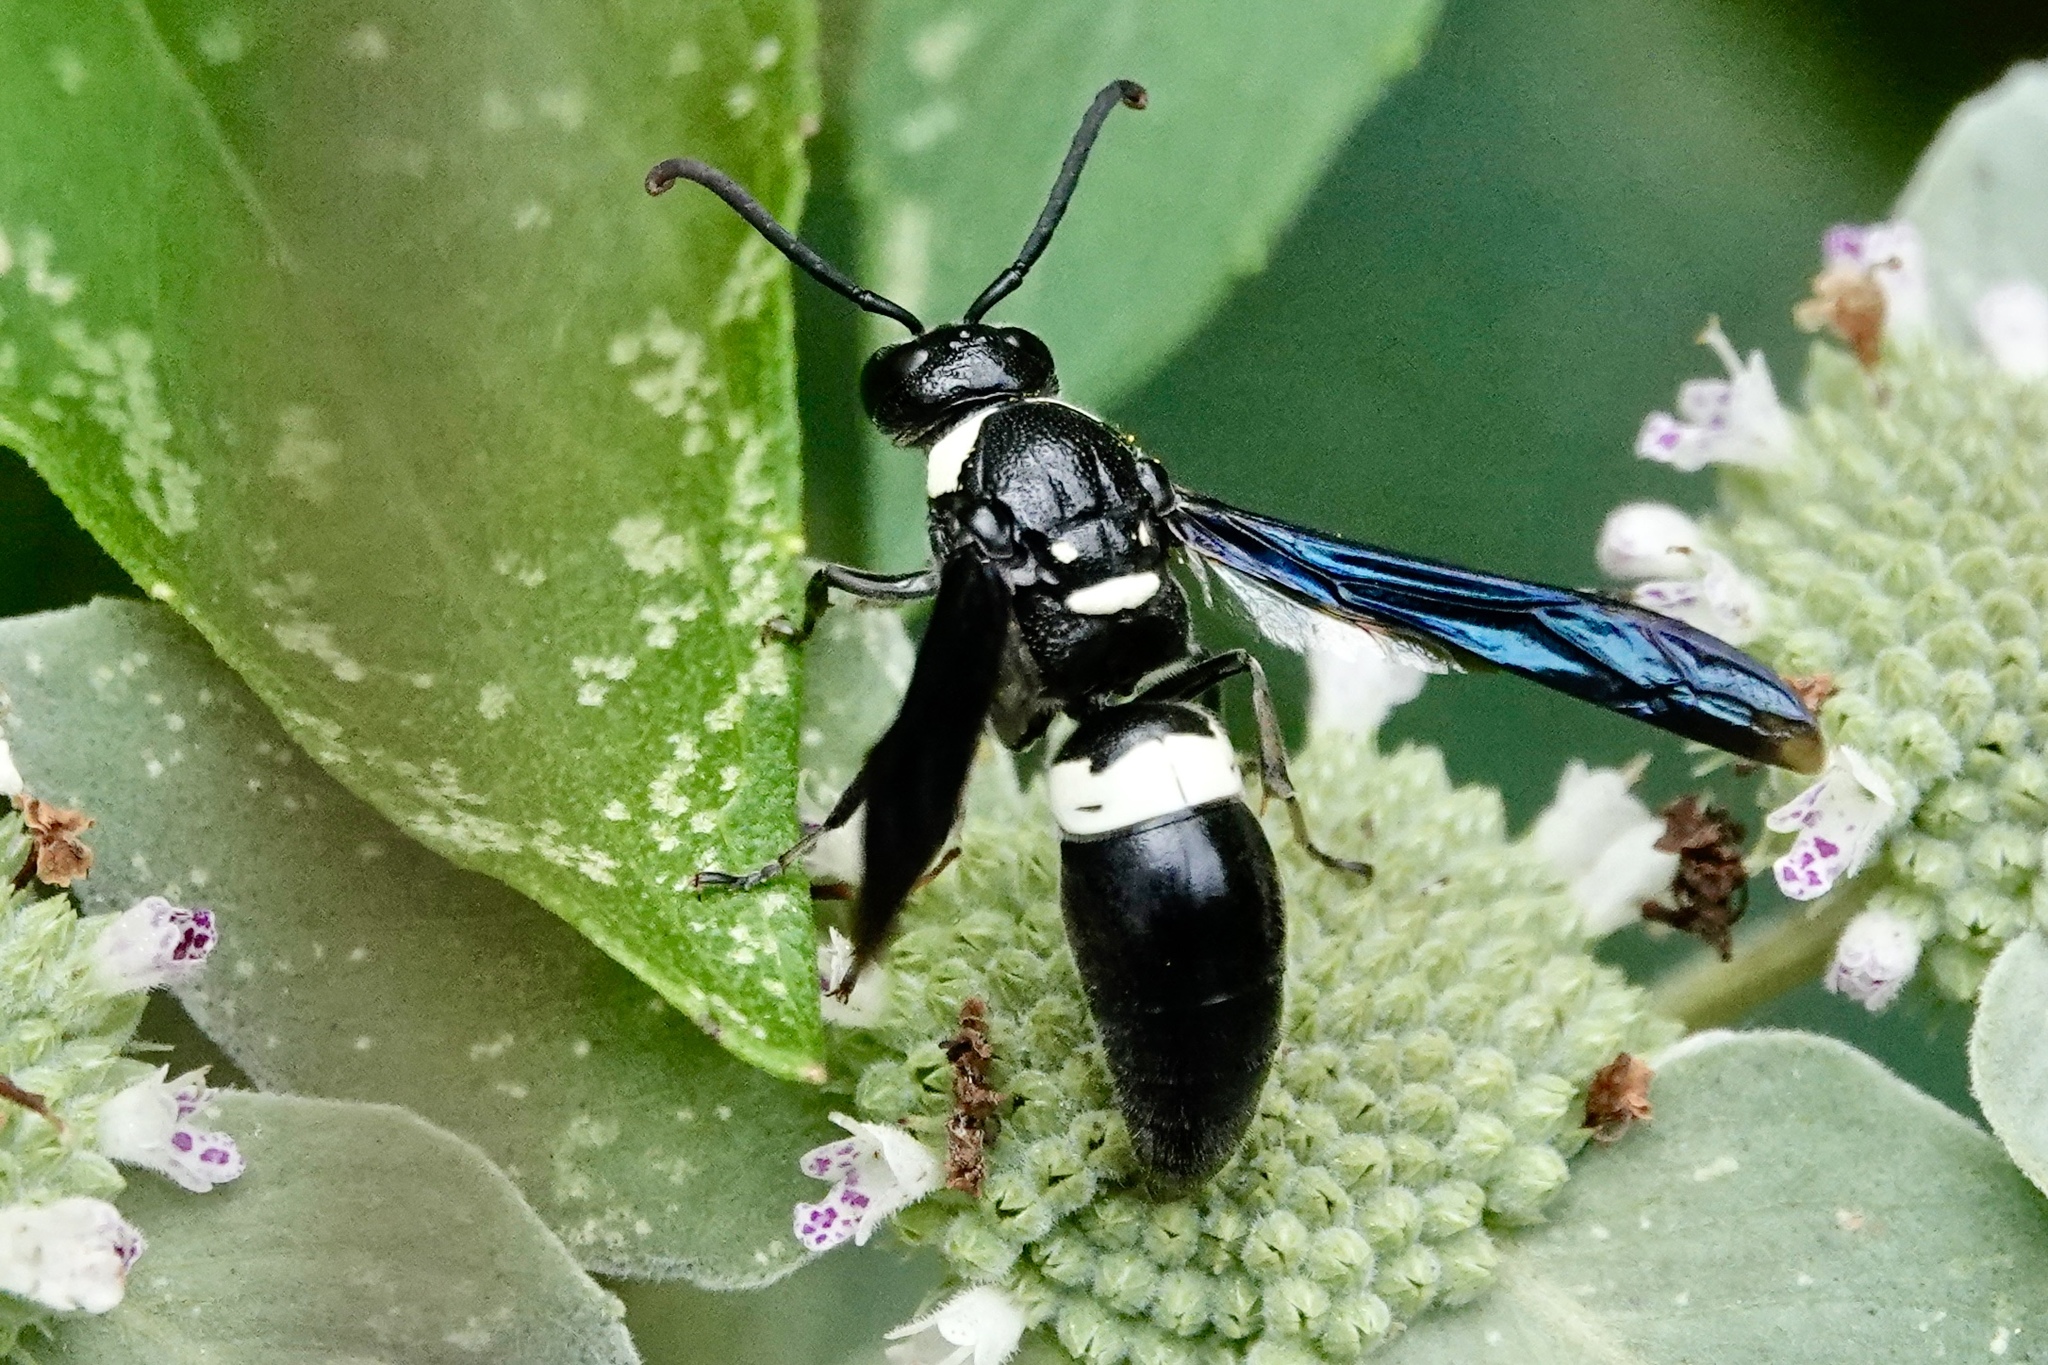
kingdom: Animalia
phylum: Arthropoda
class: Insecta
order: Hymenoptera
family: Eumenidae
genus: Monobia
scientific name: Monobia quadridens
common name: Four-toothed mason wasp
